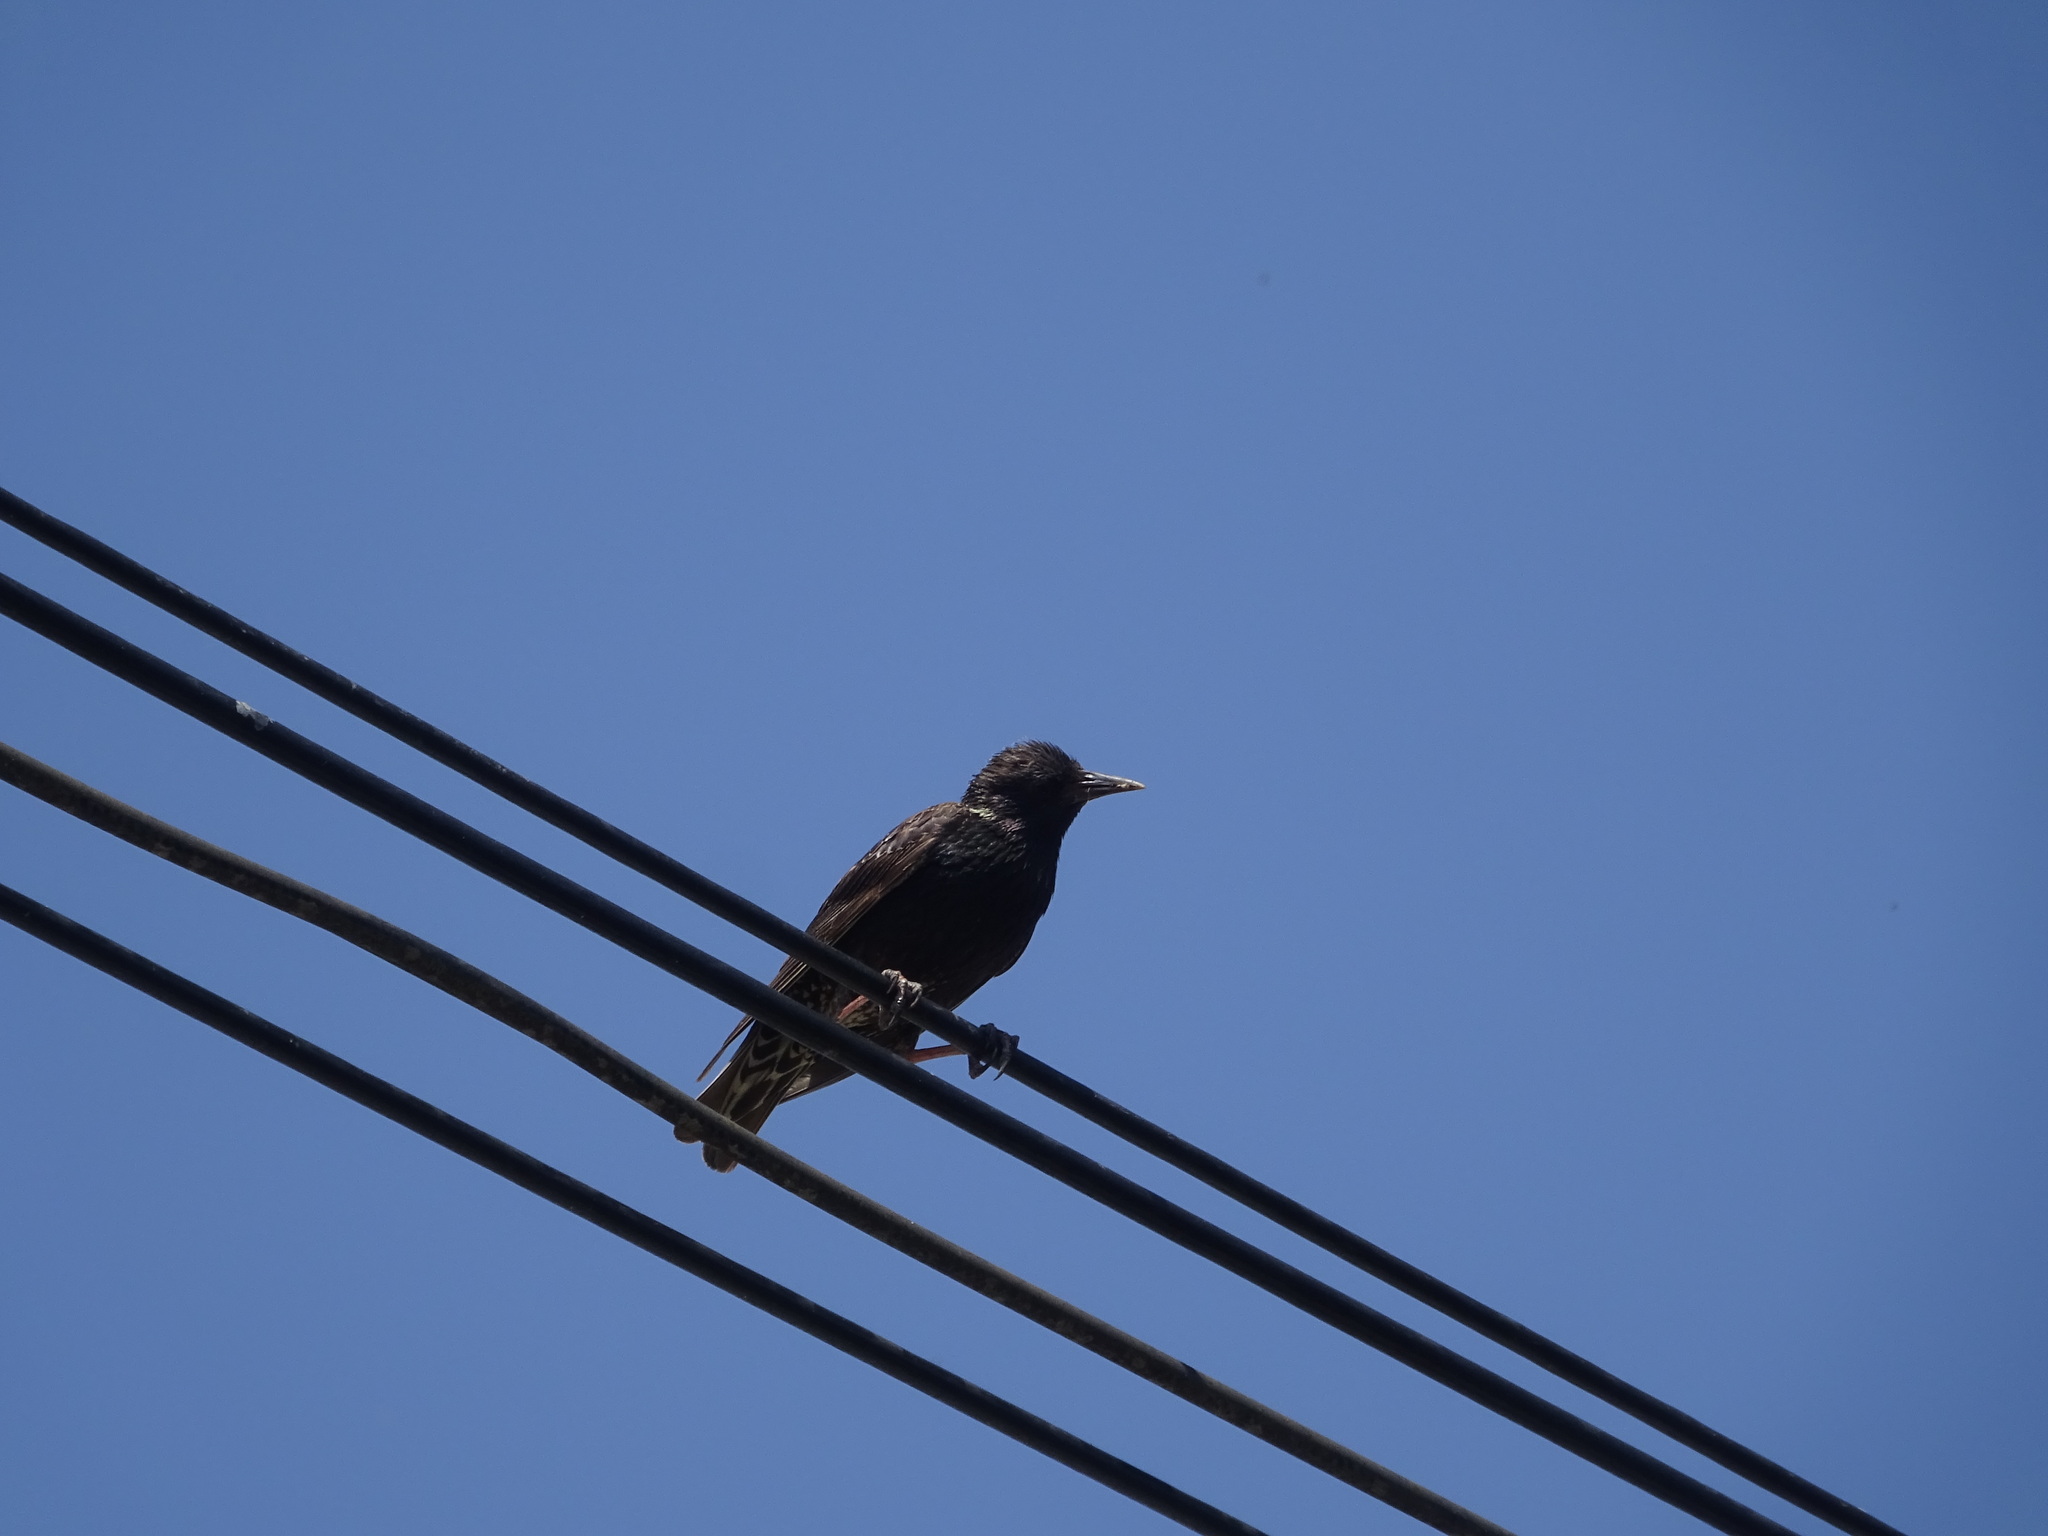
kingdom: Animalia
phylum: Chordata
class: Aves
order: Passeriformes
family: Sturnidae
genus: Sturnus
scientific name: Sturnus vulgaris
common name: Common starling
